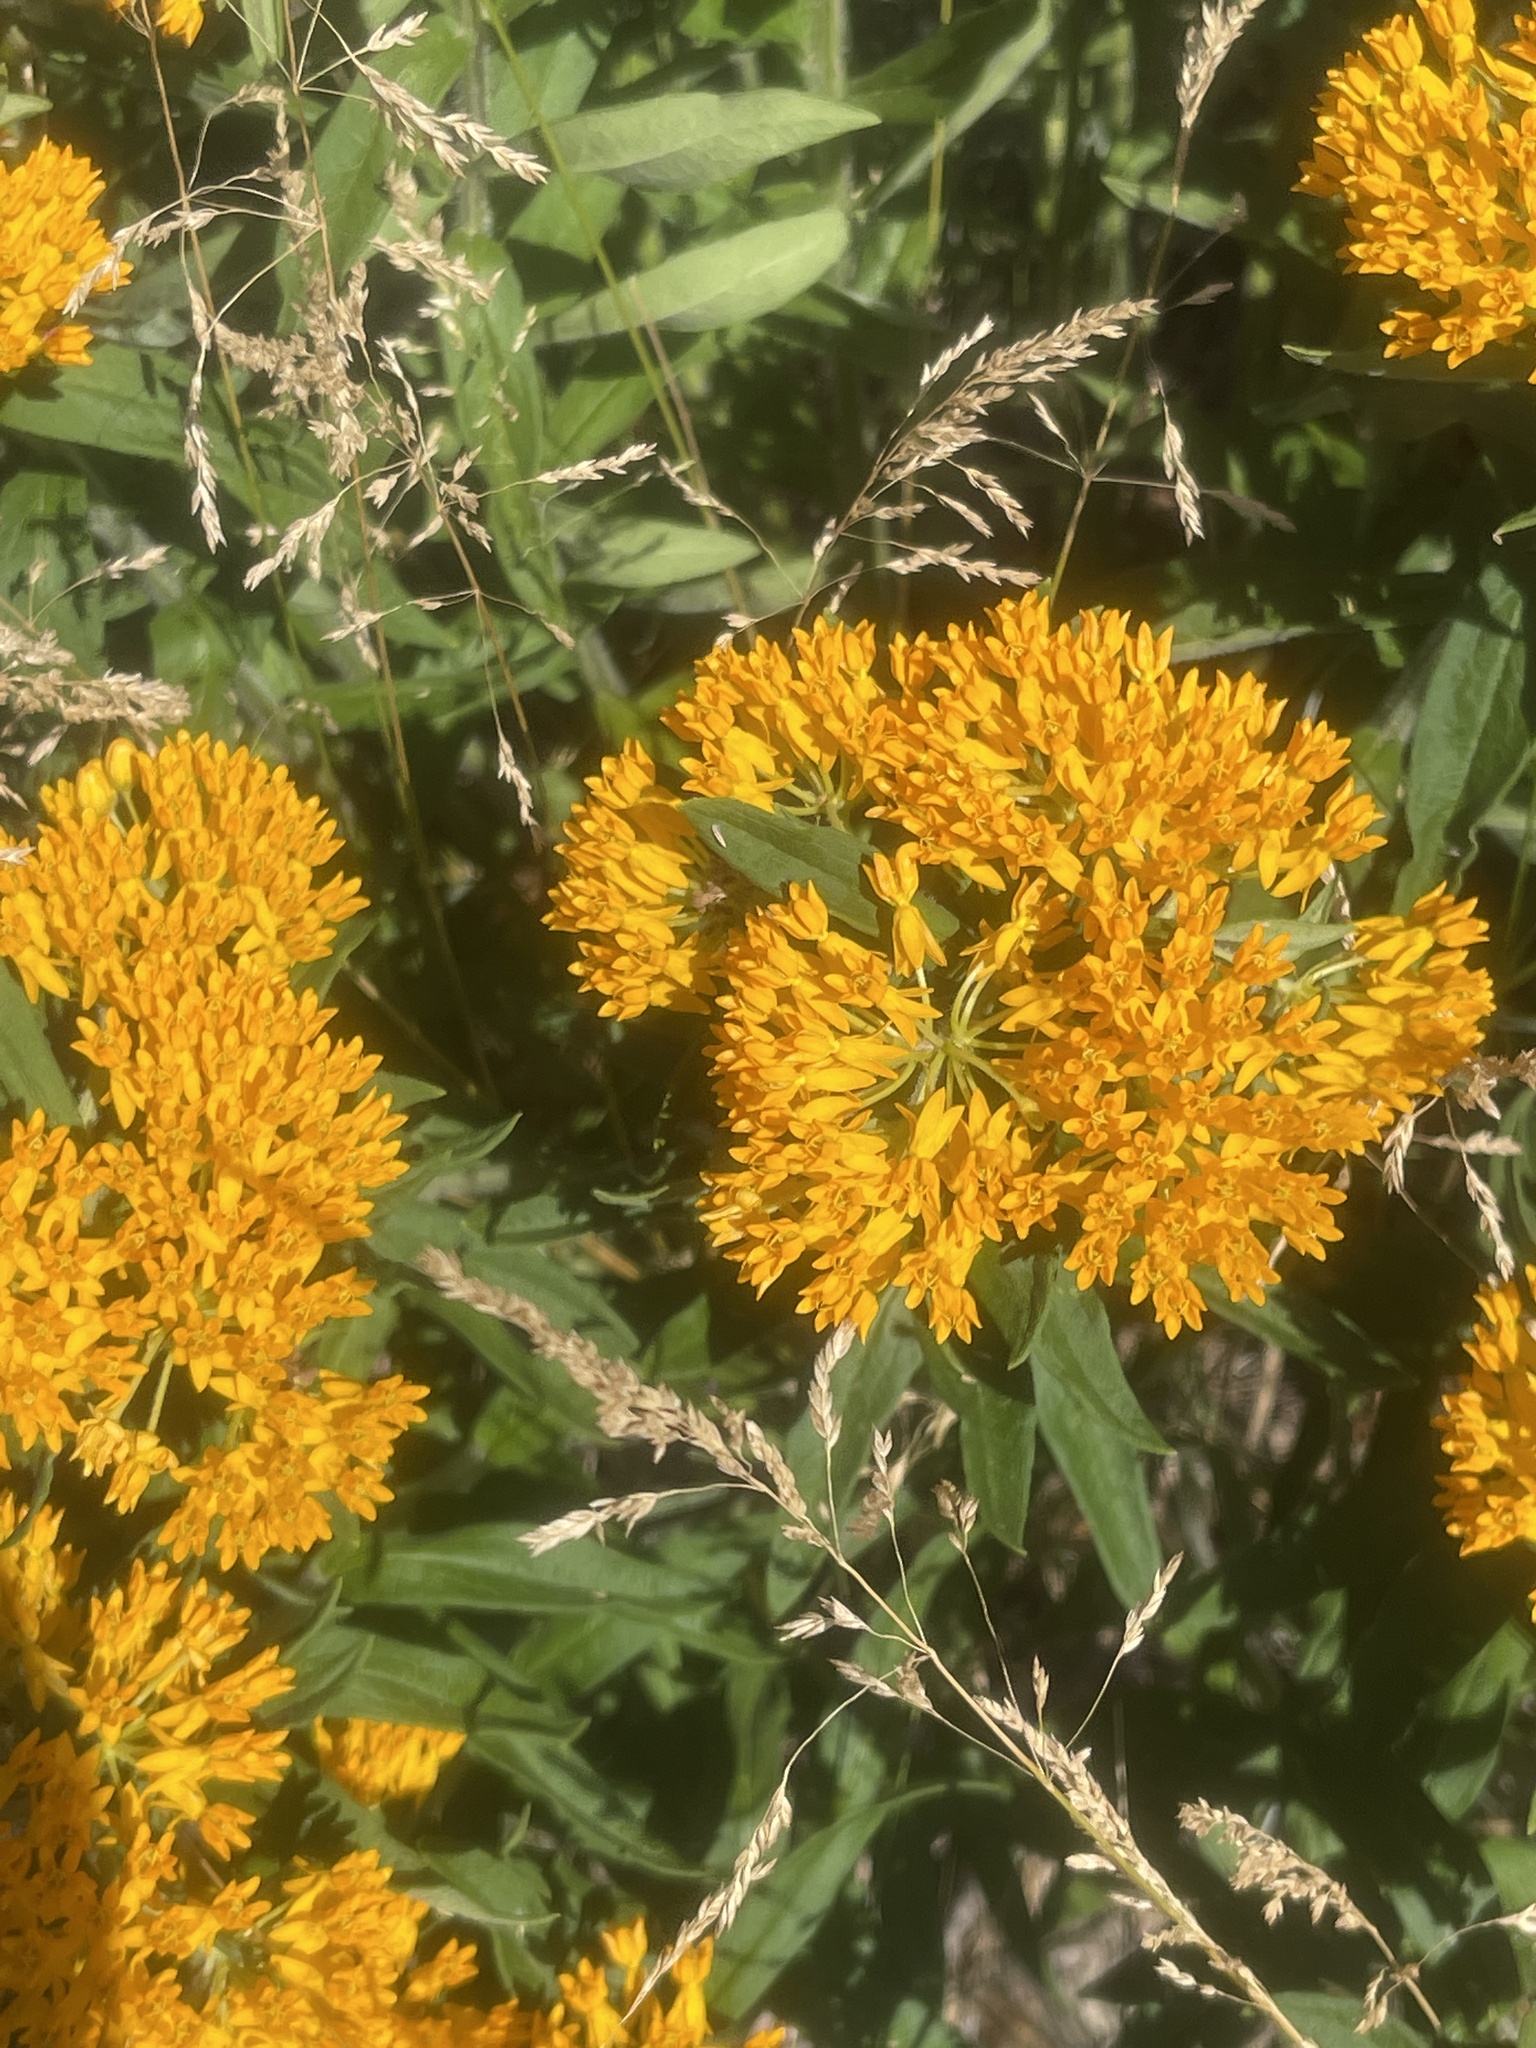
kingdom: Plantae
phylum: Tracheophyta
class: Magnoliopsida
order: Gentianales
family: Apocynaceae
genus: Asclepias
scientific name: Asclepias tuberosa
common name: Butterfly milkweed
